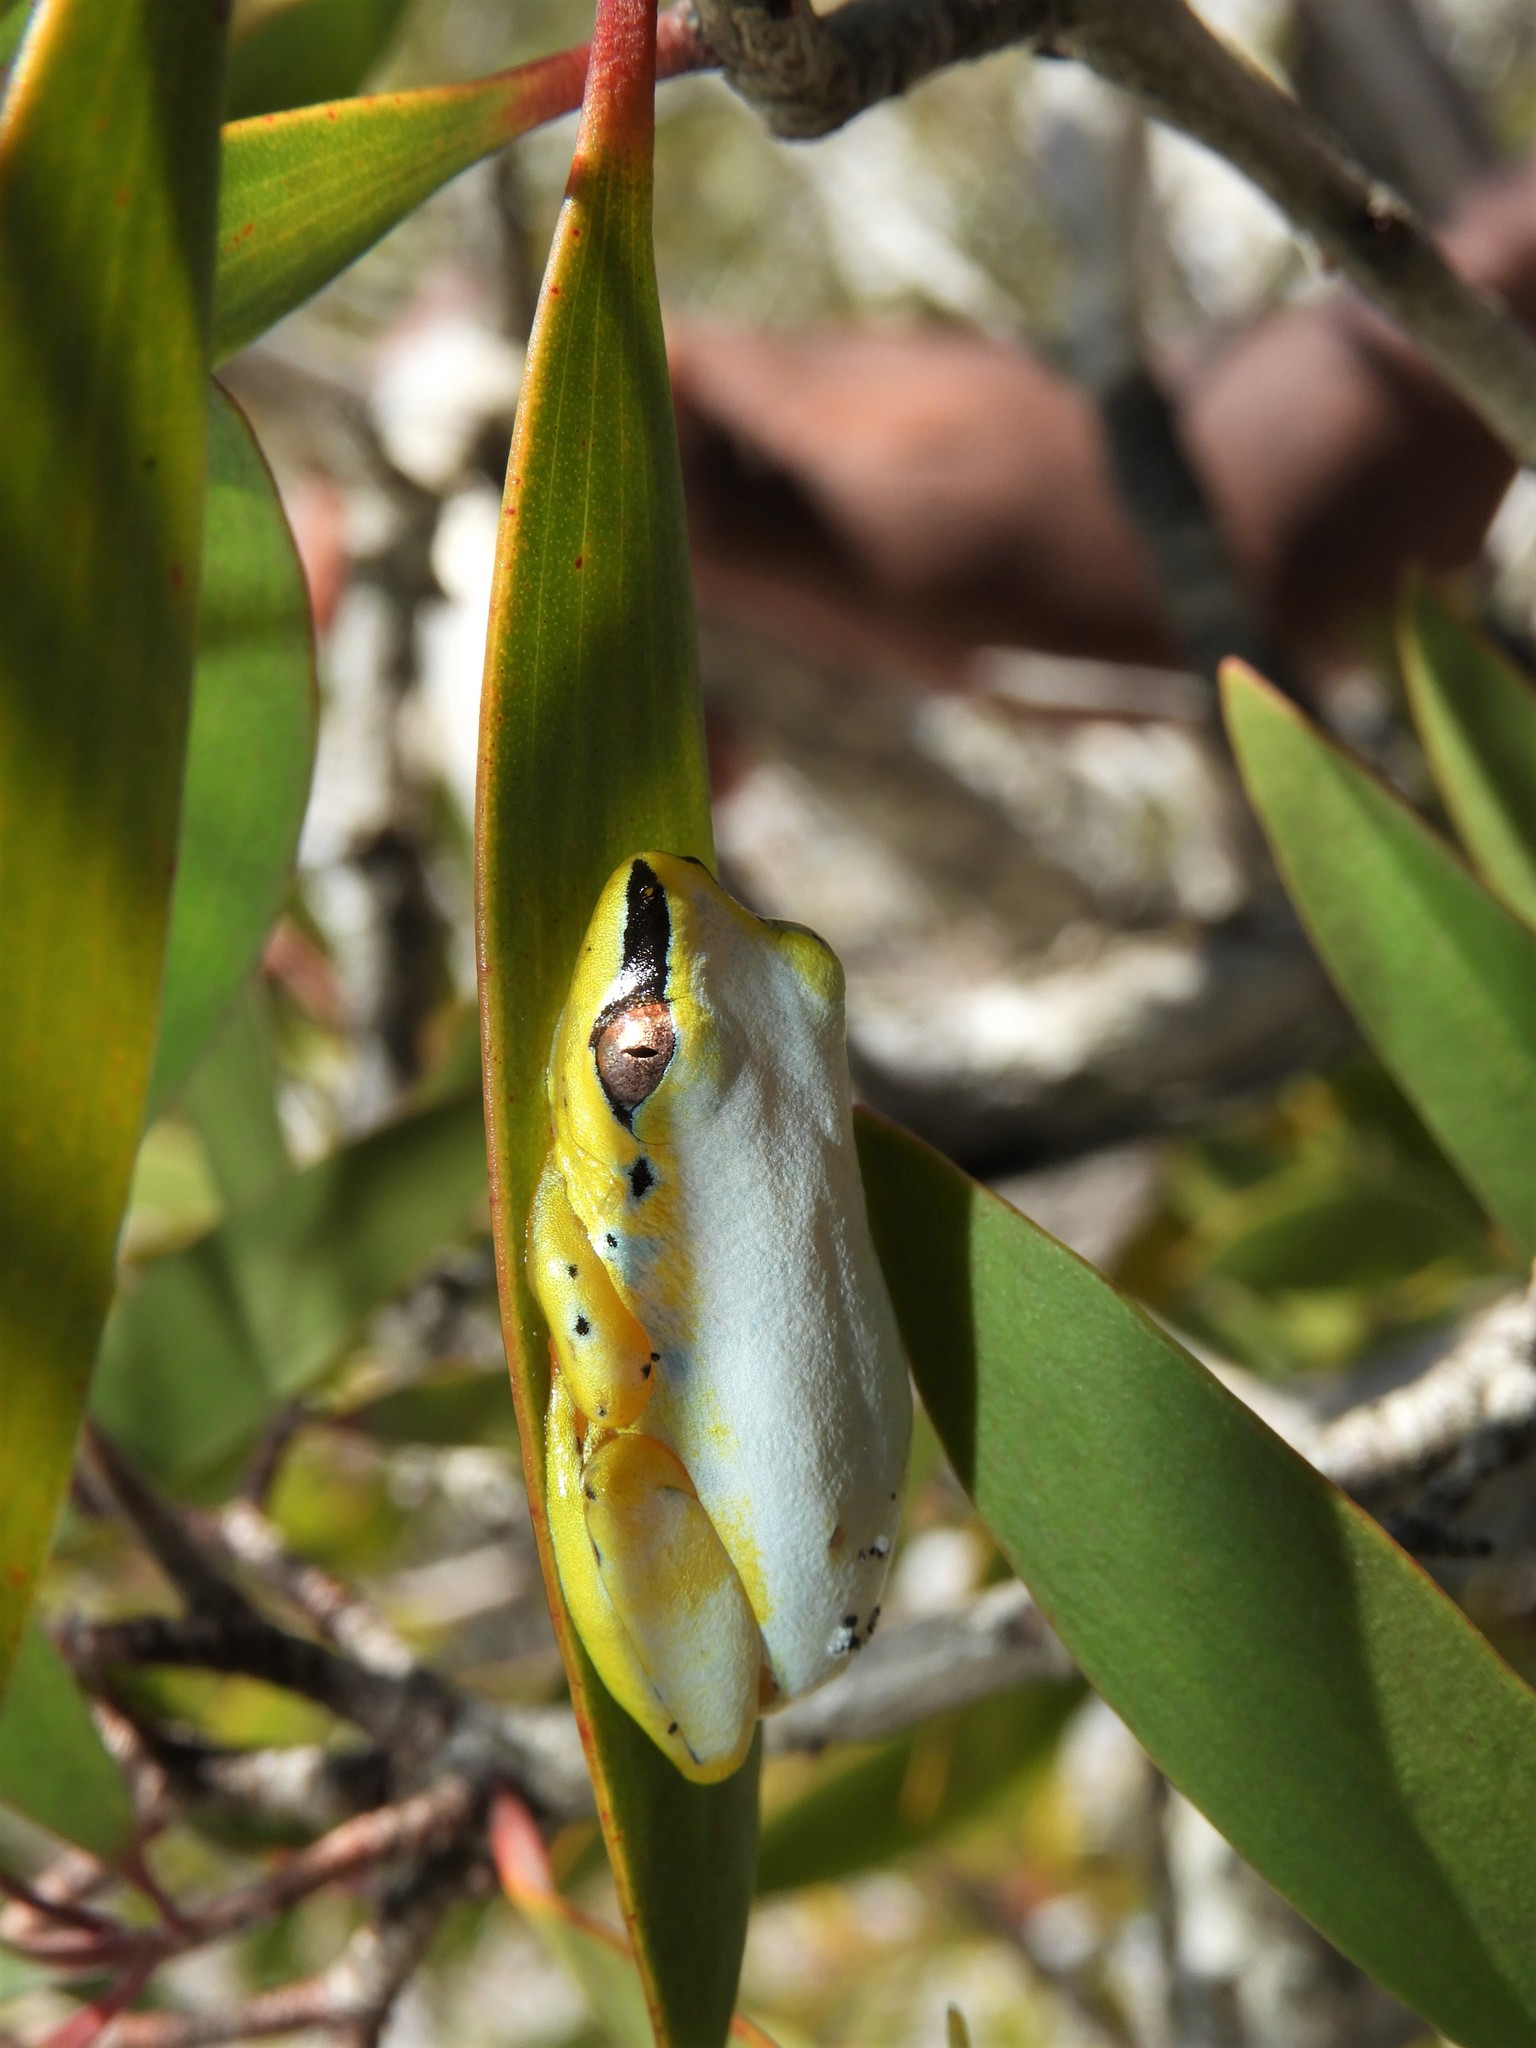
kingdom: Animalia
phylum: Chordata
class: Amphibia
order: Anura
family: Hyperoliidae
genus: Heterixalus
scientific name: Heterixalus madagascariensis
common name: Madagascar reed frog
